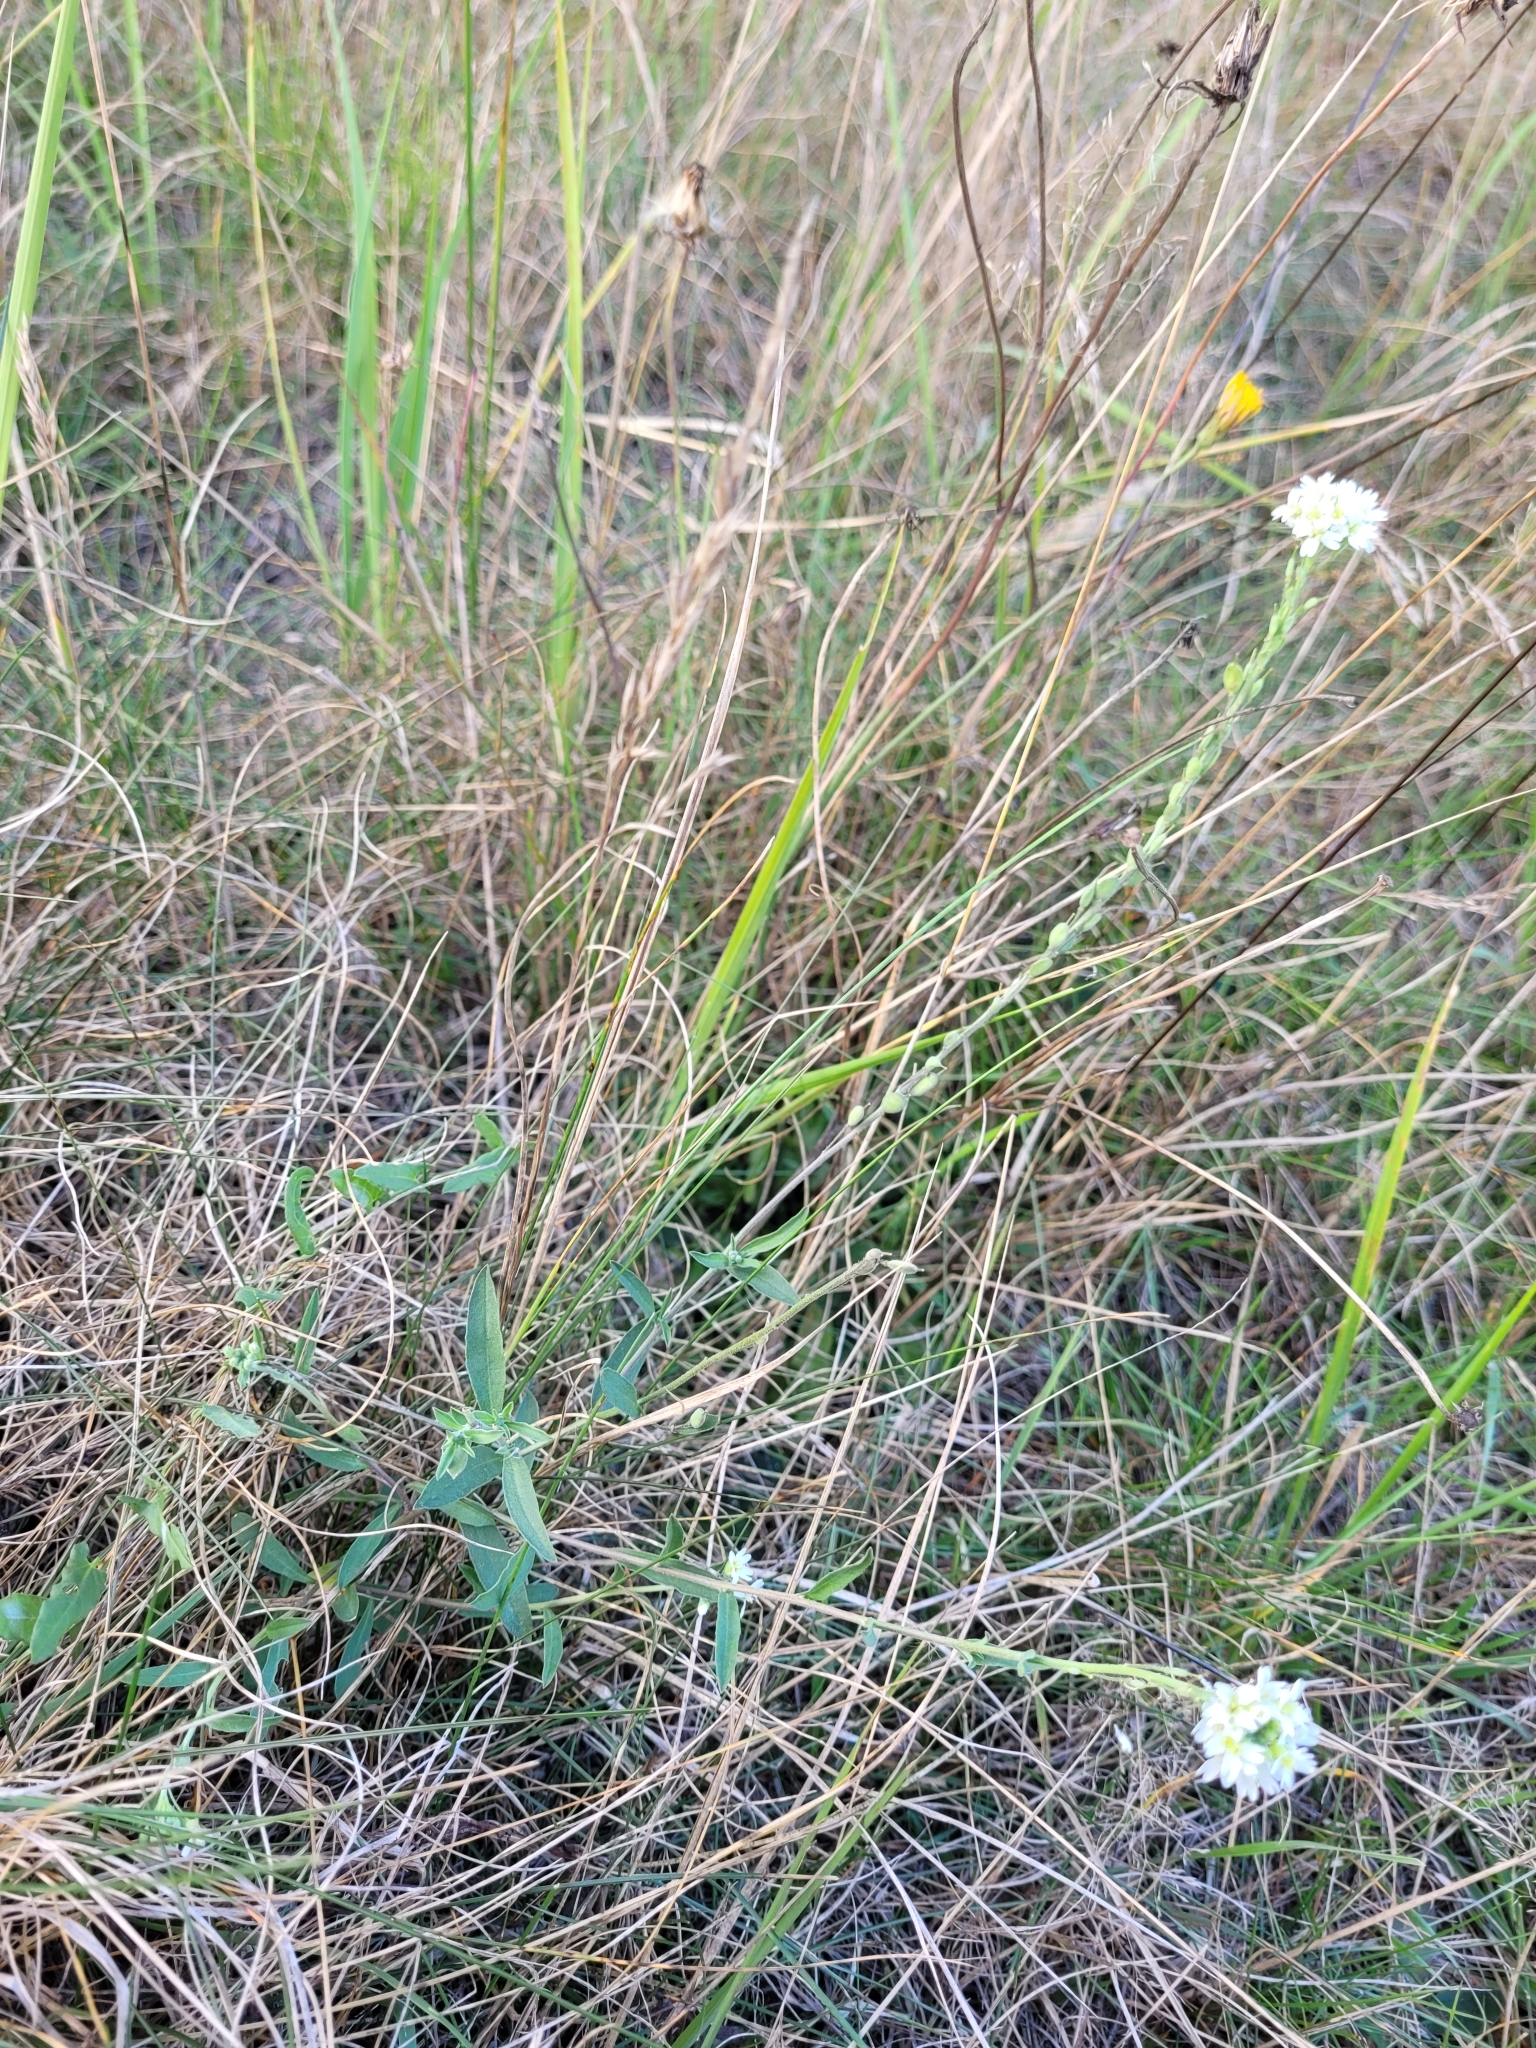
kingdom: Plantae
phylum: Tracheophyta
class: Magnoliopsida
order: Brassicales
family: Brassicaceae
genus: Berteroa
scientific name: Berteroa incana
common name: Hoary alison
